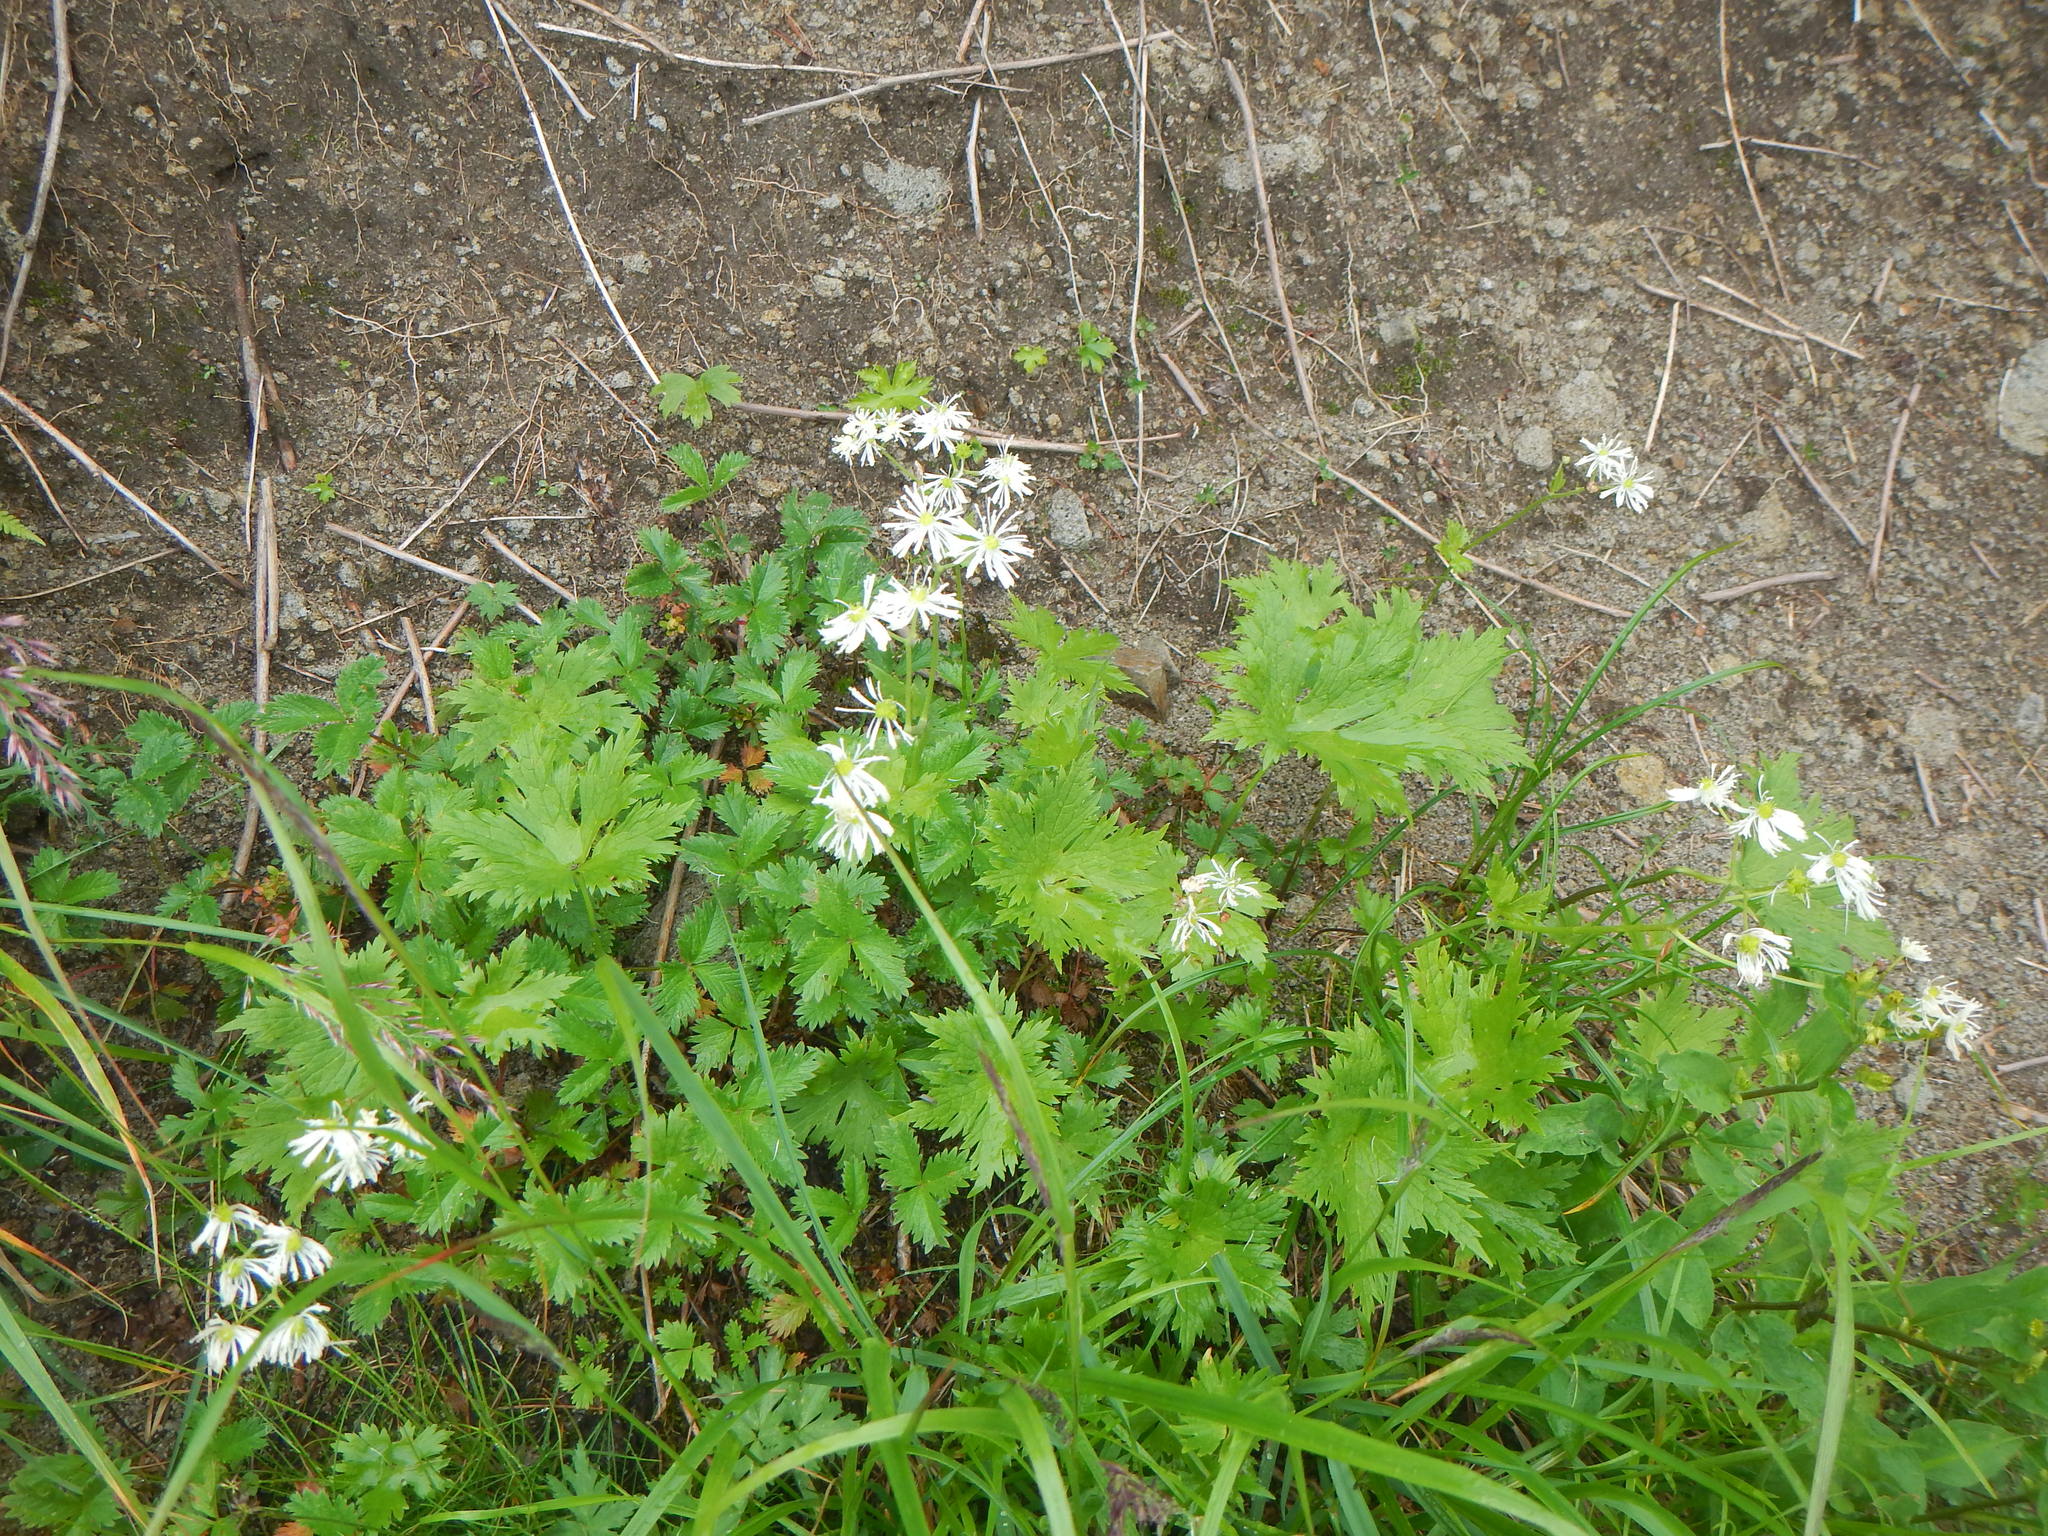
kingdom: Plantae
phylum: Tracheophyta
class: Magnoliopsida
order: Ranunculales
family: Ranunculaceae
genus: Trautvetteria
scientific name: Trautvetteria palmata
